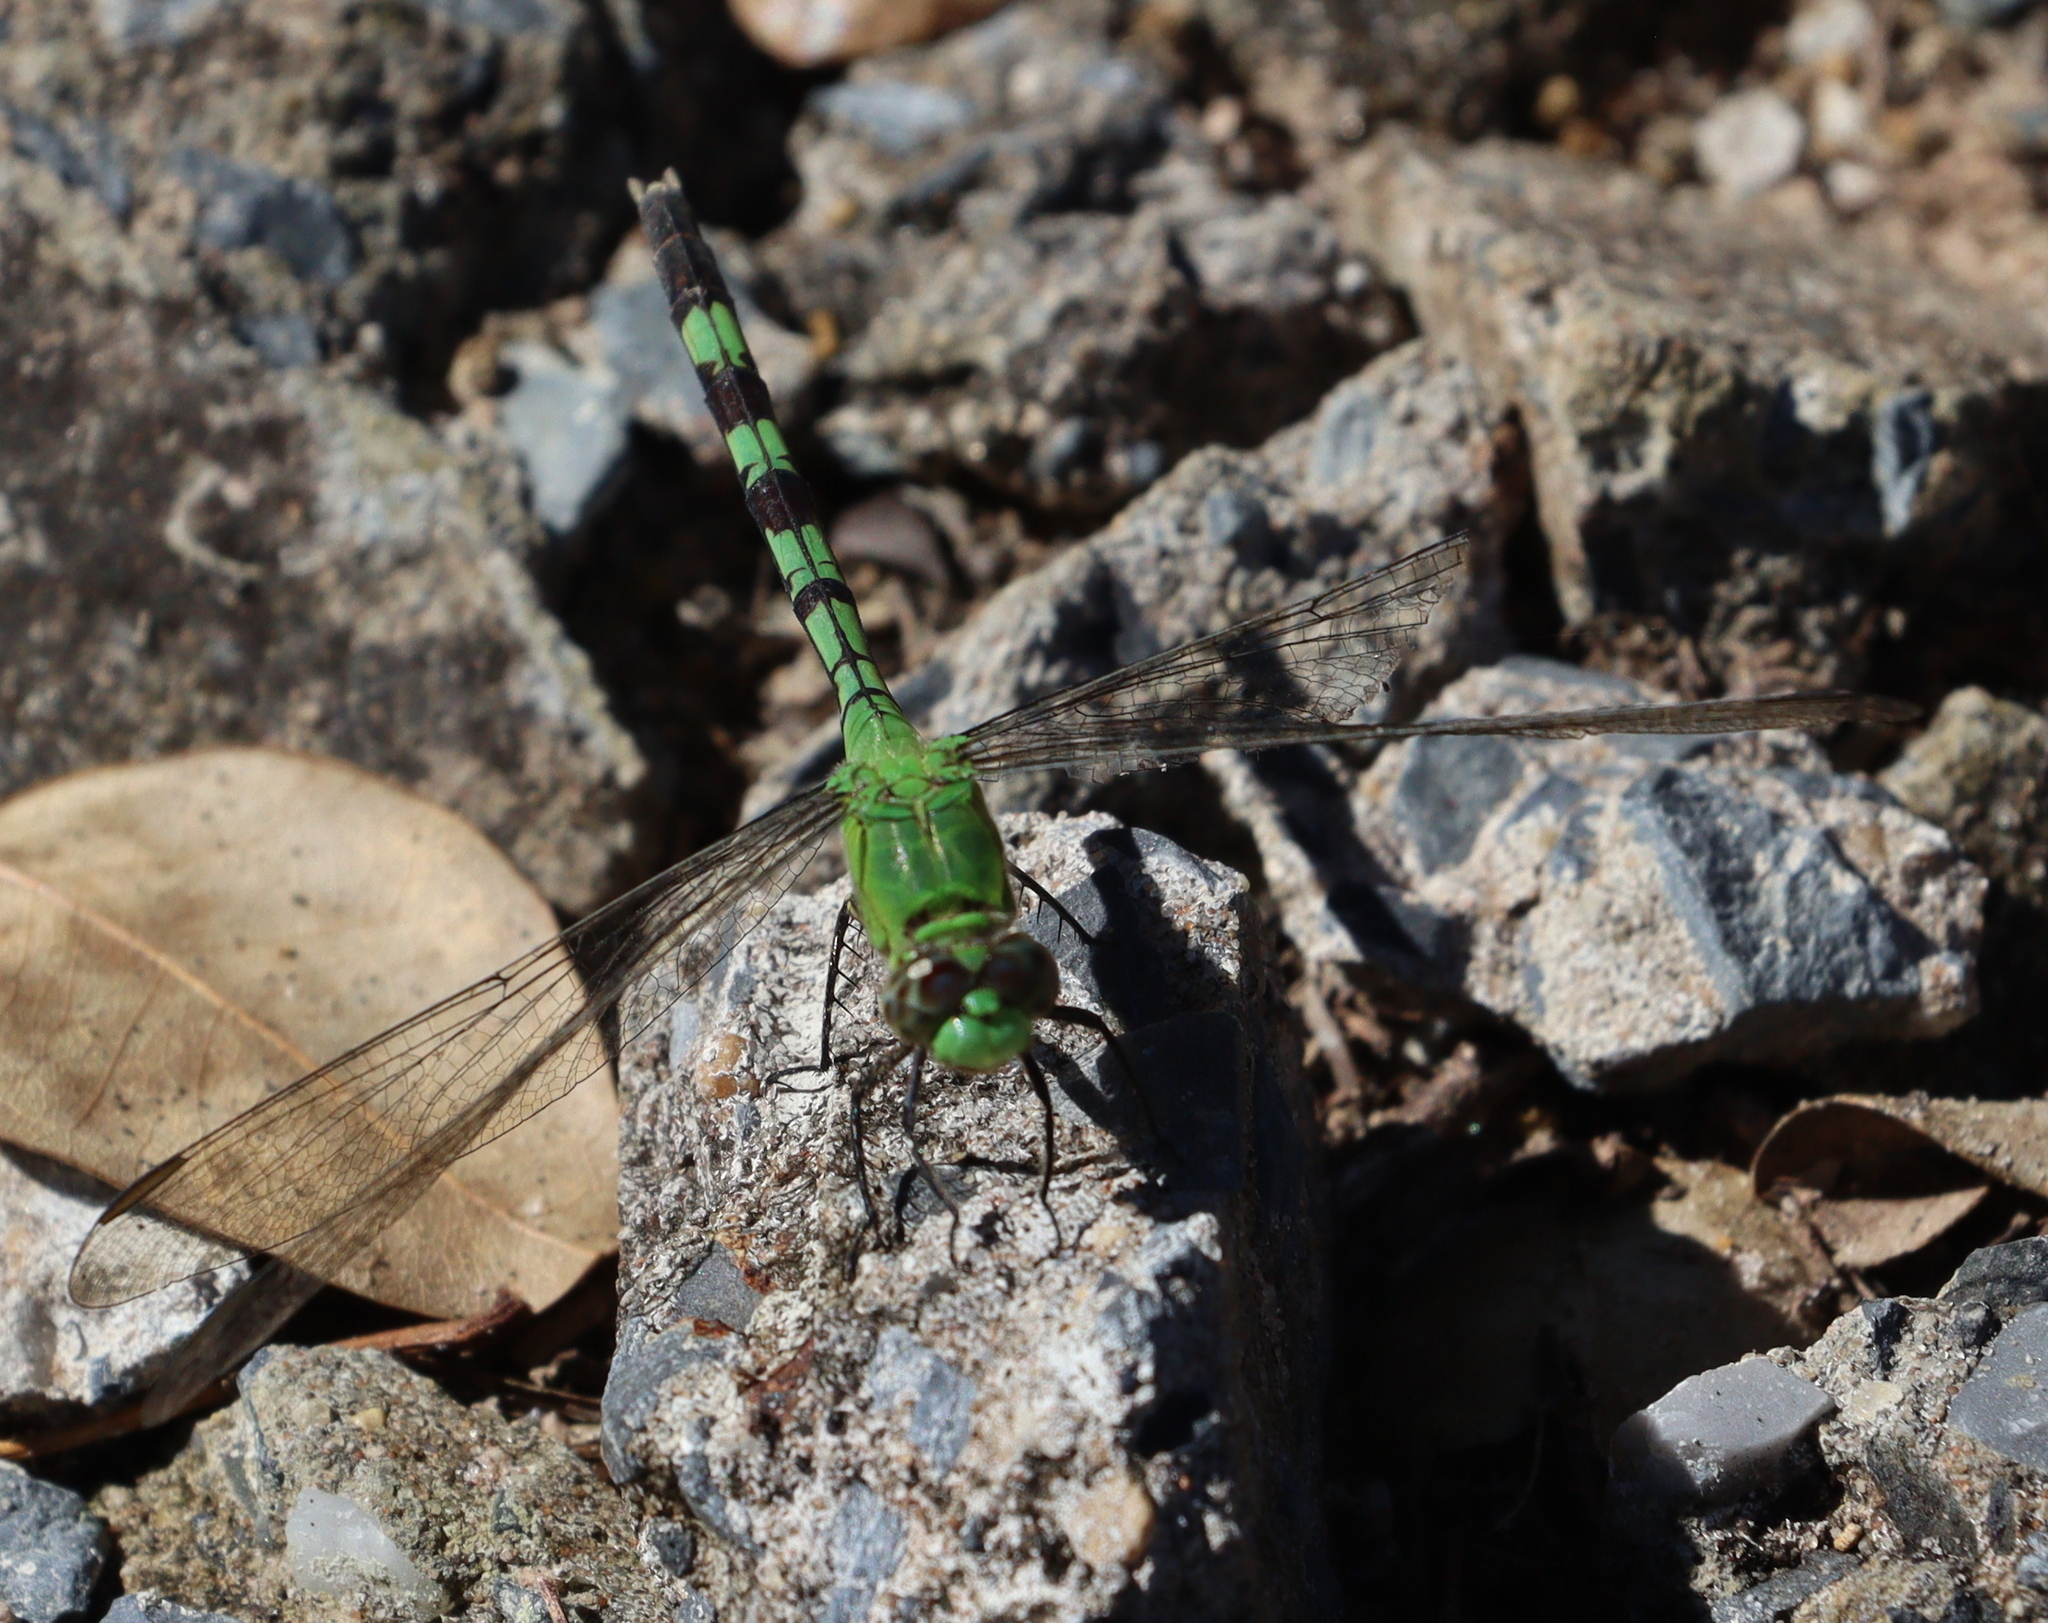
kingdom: Animalia
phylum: Arthropoda
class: Insecta
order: Odonata
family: Libellulidae
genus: Erythemis
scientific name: Erythemis vesiculosa
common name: Great pondhawk
